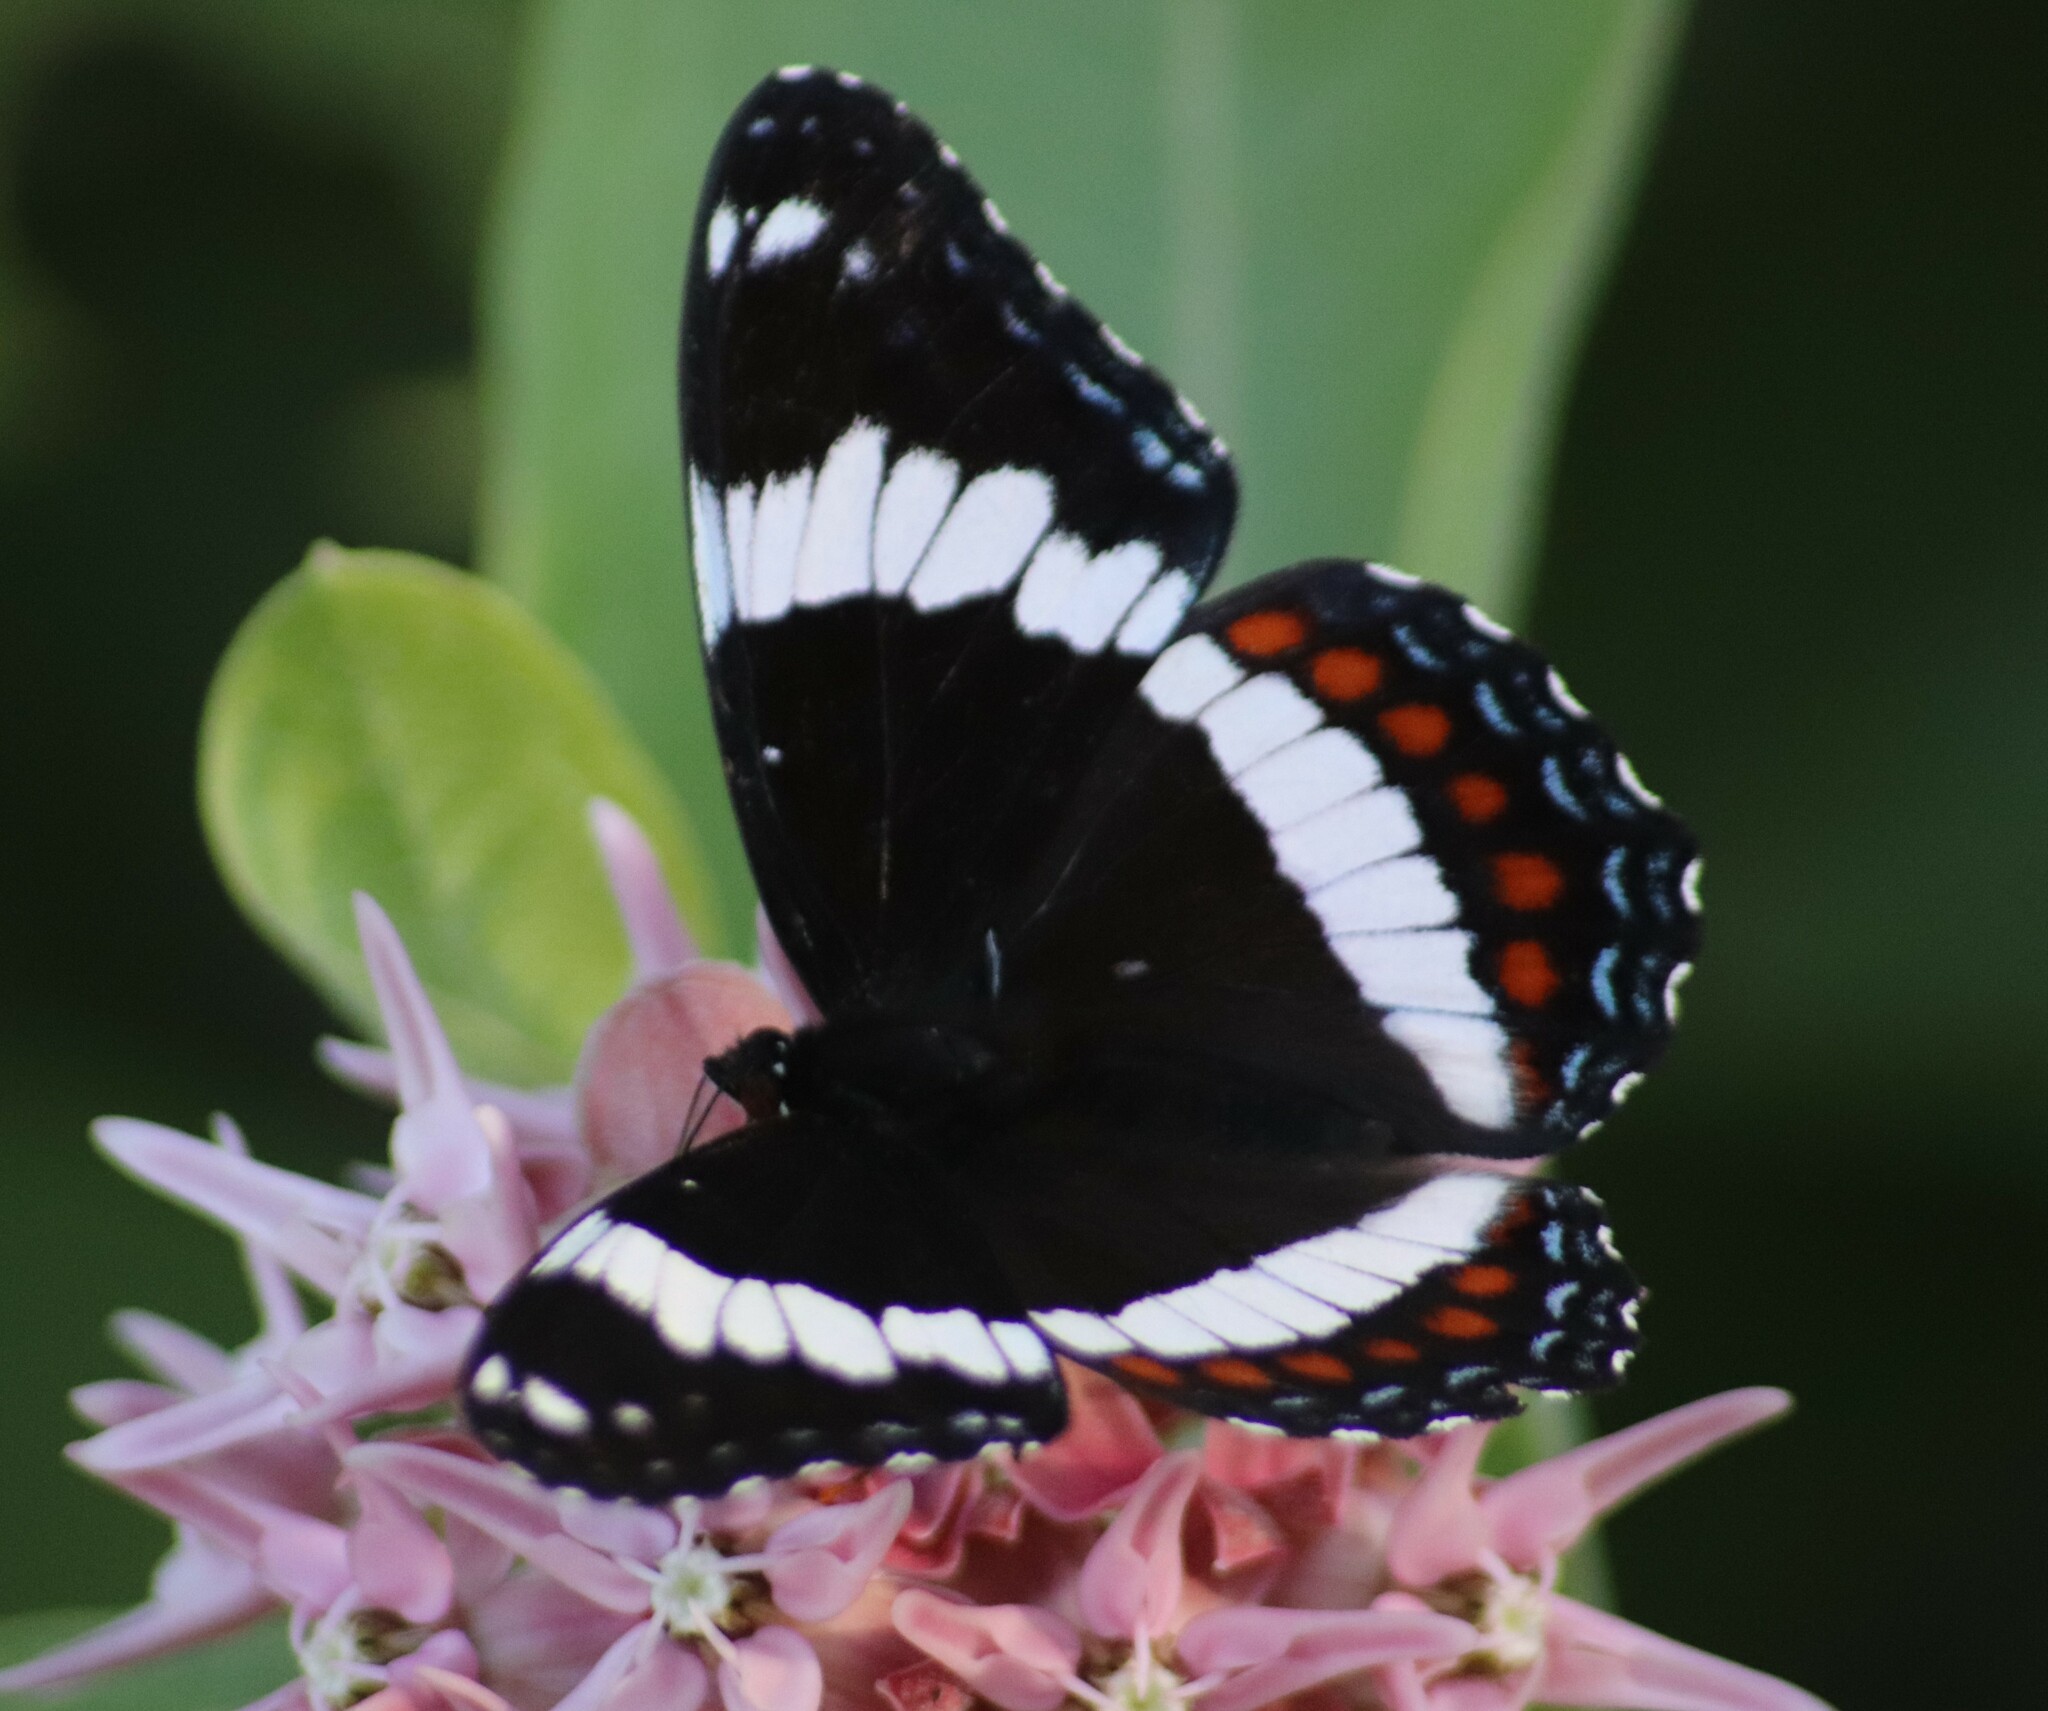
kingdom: Animalia
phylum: Arthropoda
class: Insecta
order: Lepidoptera
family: Nymphalidae
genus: Limenitis
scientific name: Limenitis arthemis
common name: Red-spotted admiral
